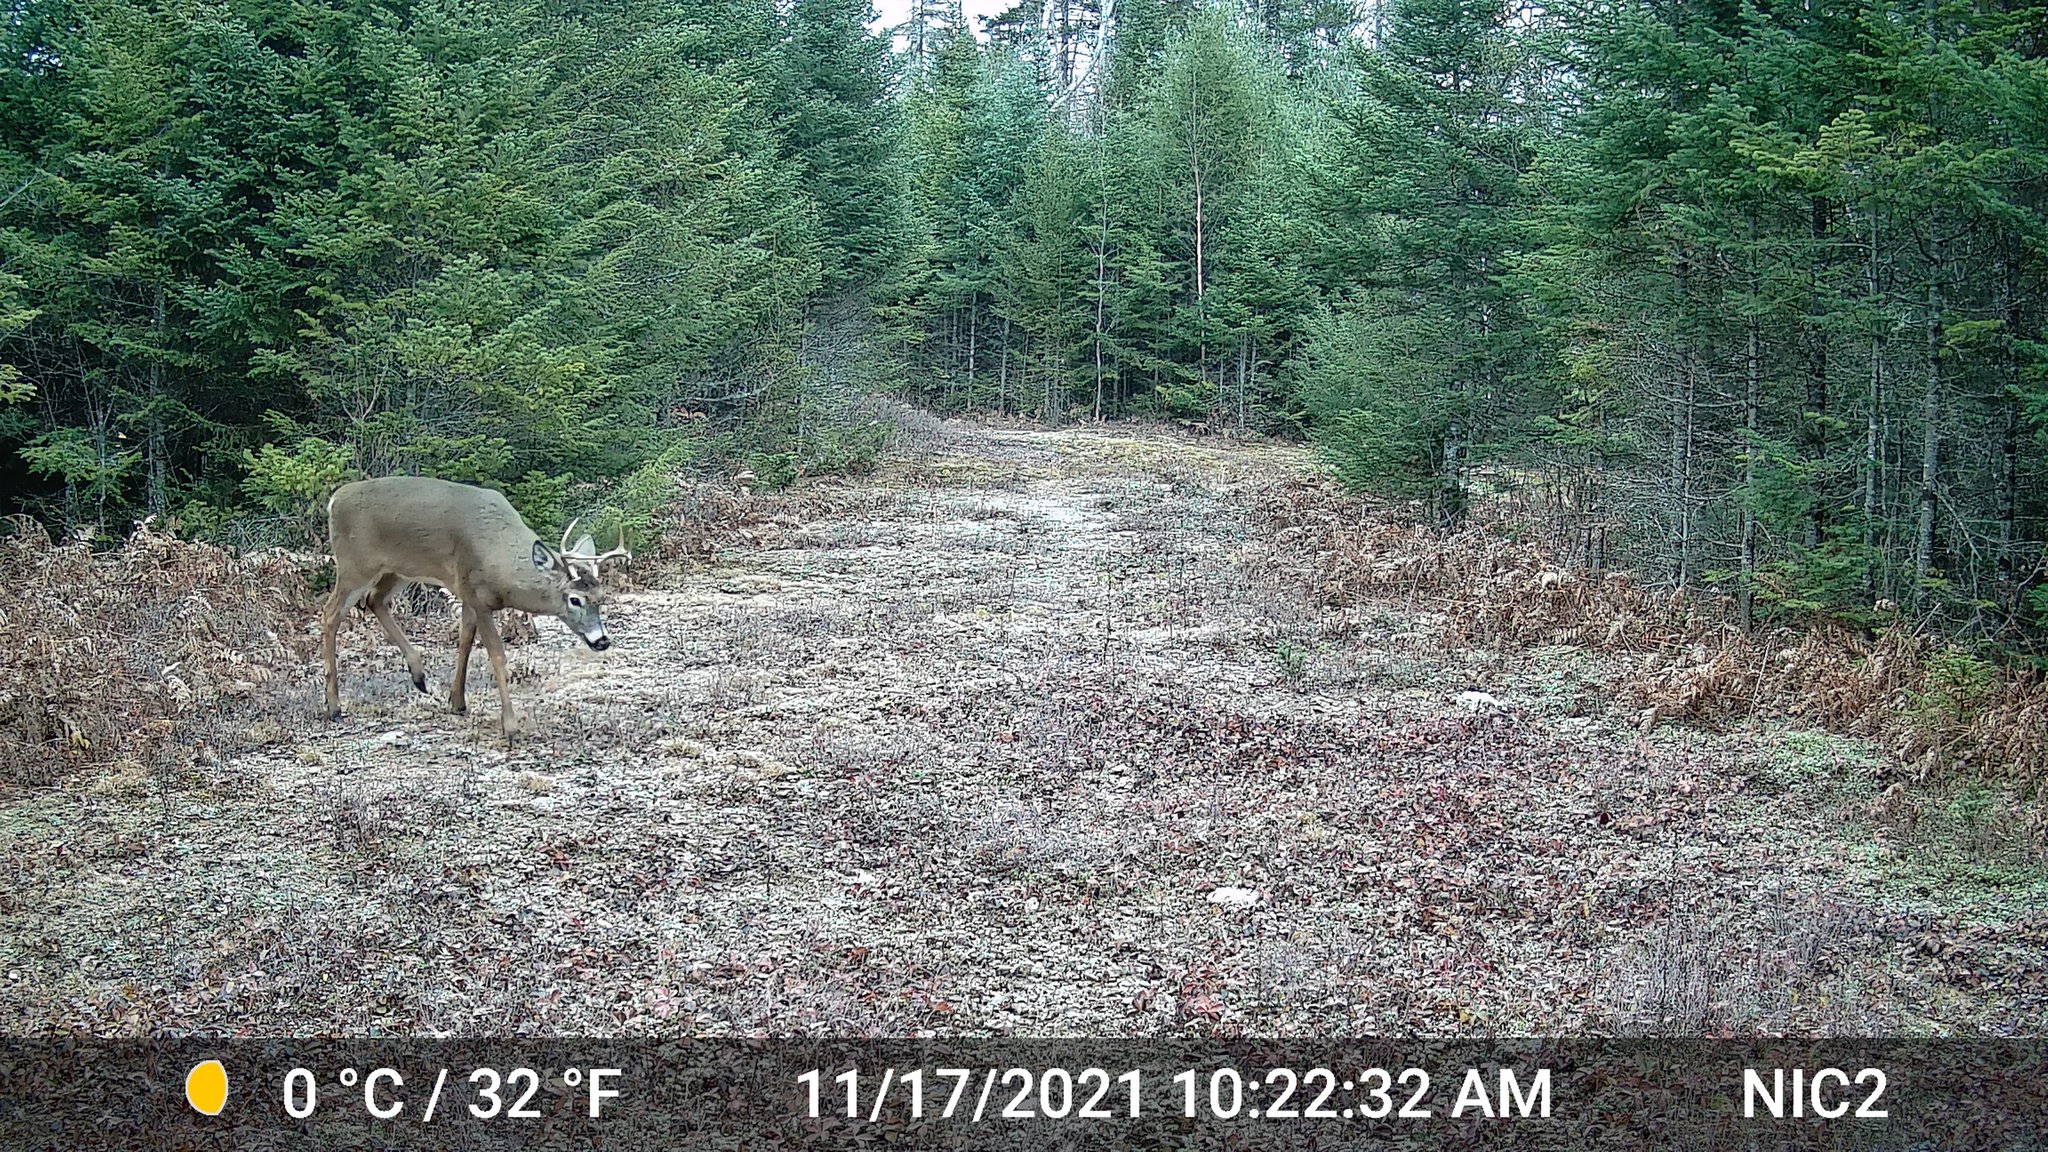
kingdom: Animalia
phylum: Chordata
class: Mammalia
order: Artiodactyla
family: Cervidae
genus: Odocoileus
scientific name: Odocoileus virginianus
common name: White-tailed deer
